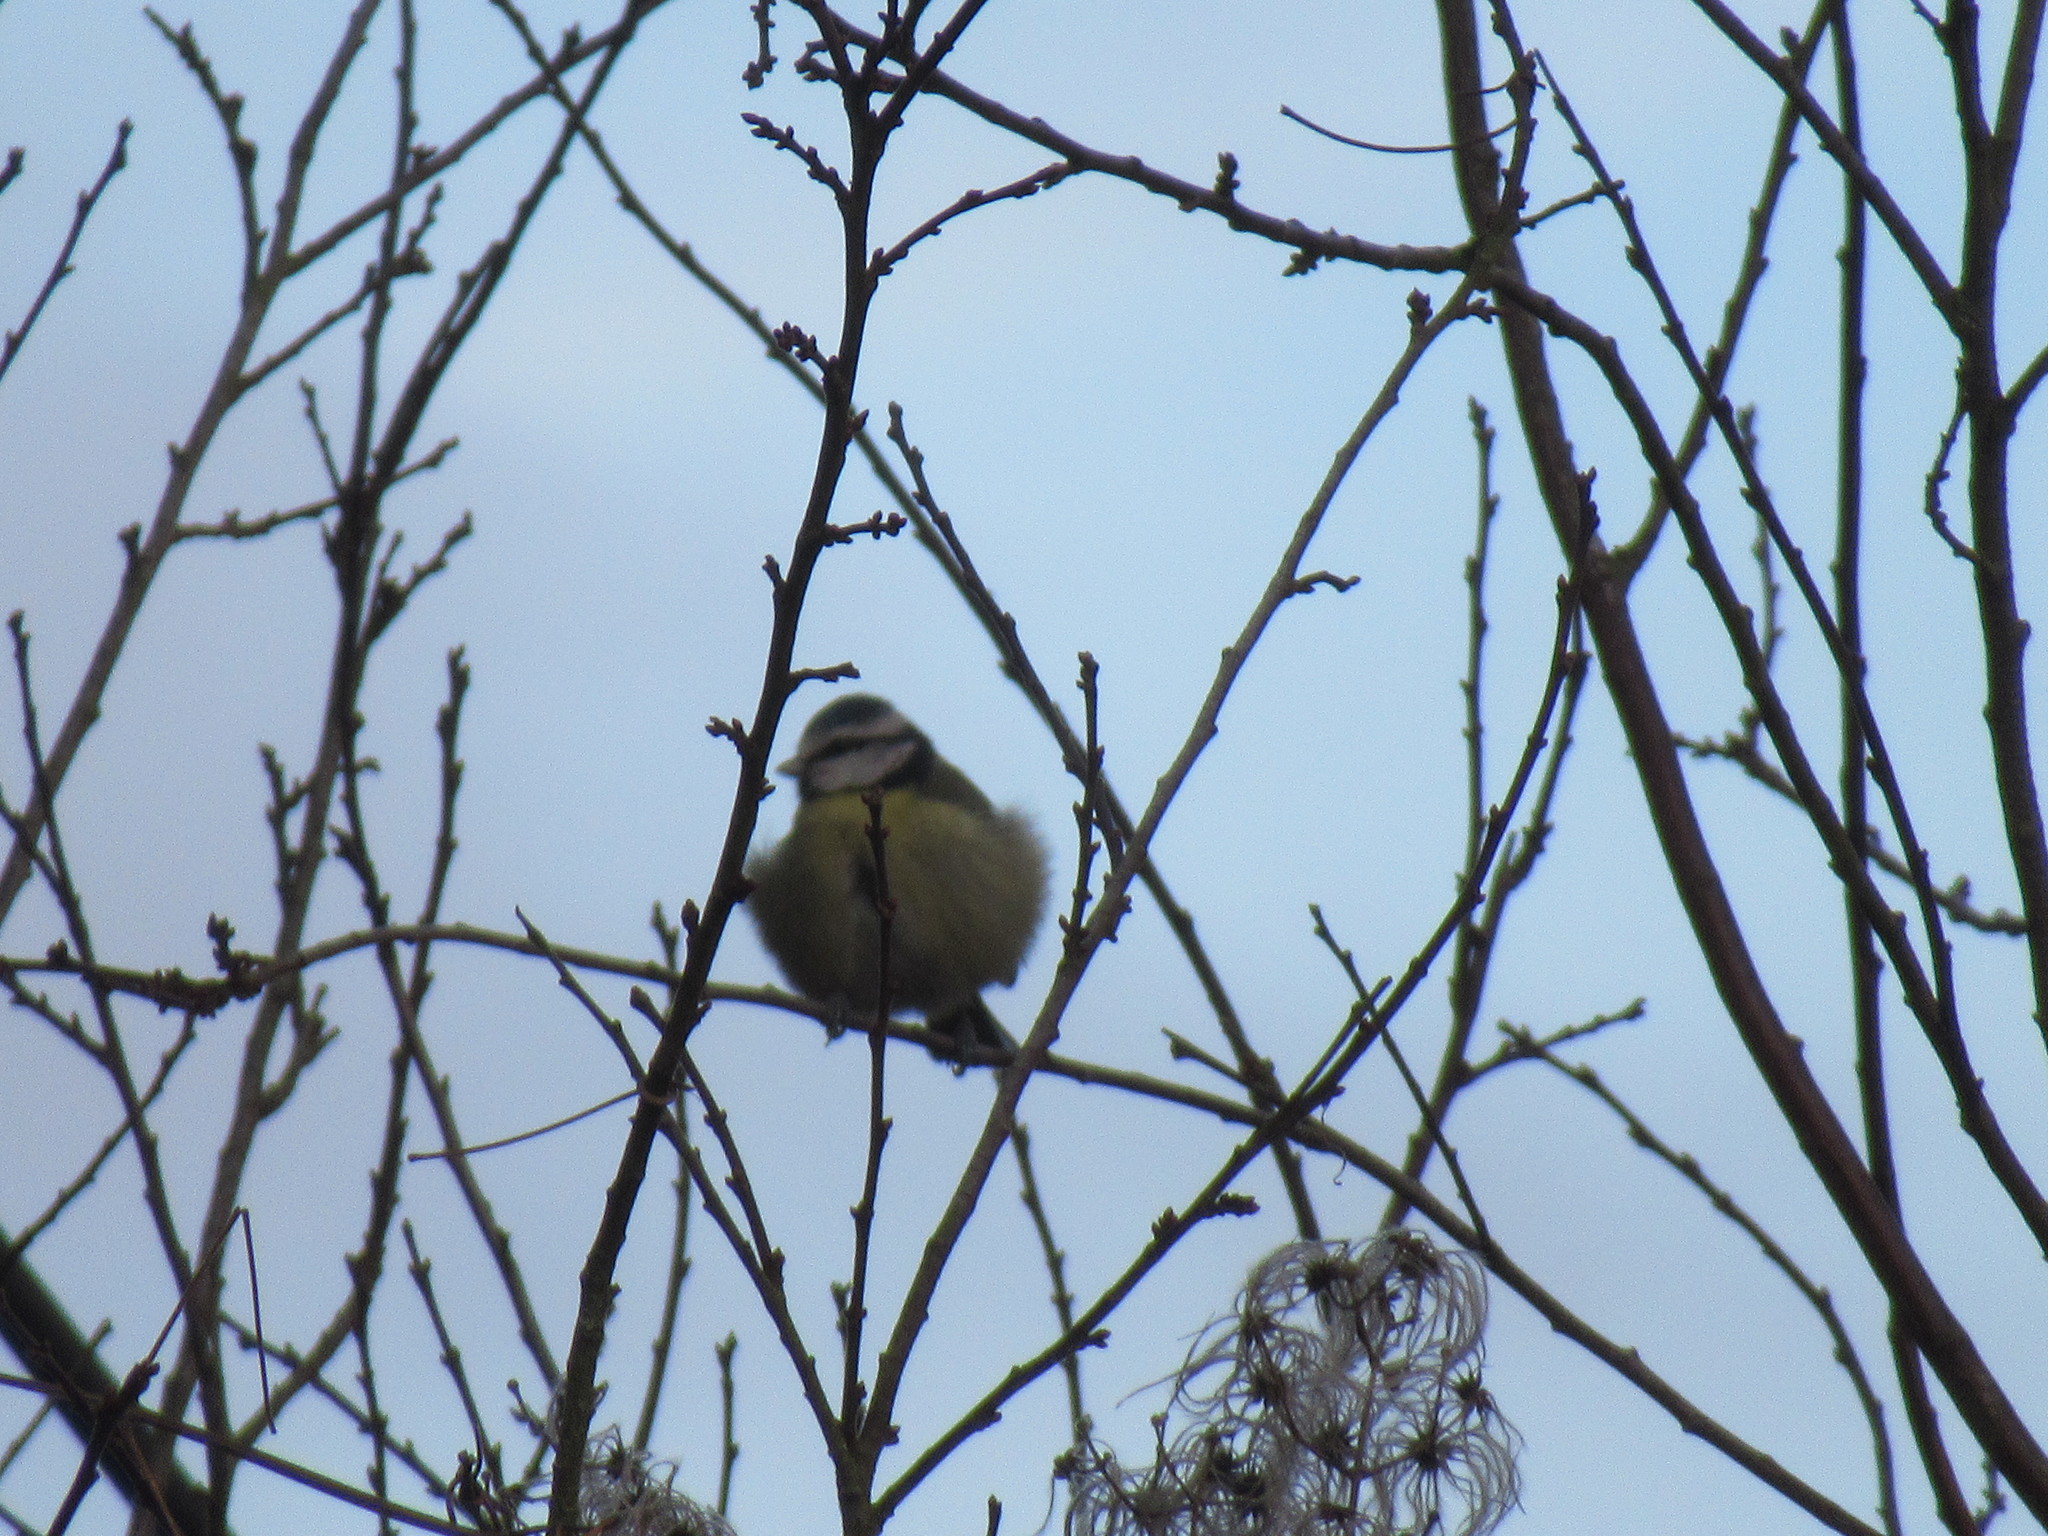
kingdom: Animalia
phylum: Chordata
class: Aves
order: Passeriformes
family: Paridae
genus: Cyanistes
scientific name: Cyanistes caeruleus
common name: Eurasian blue tit
